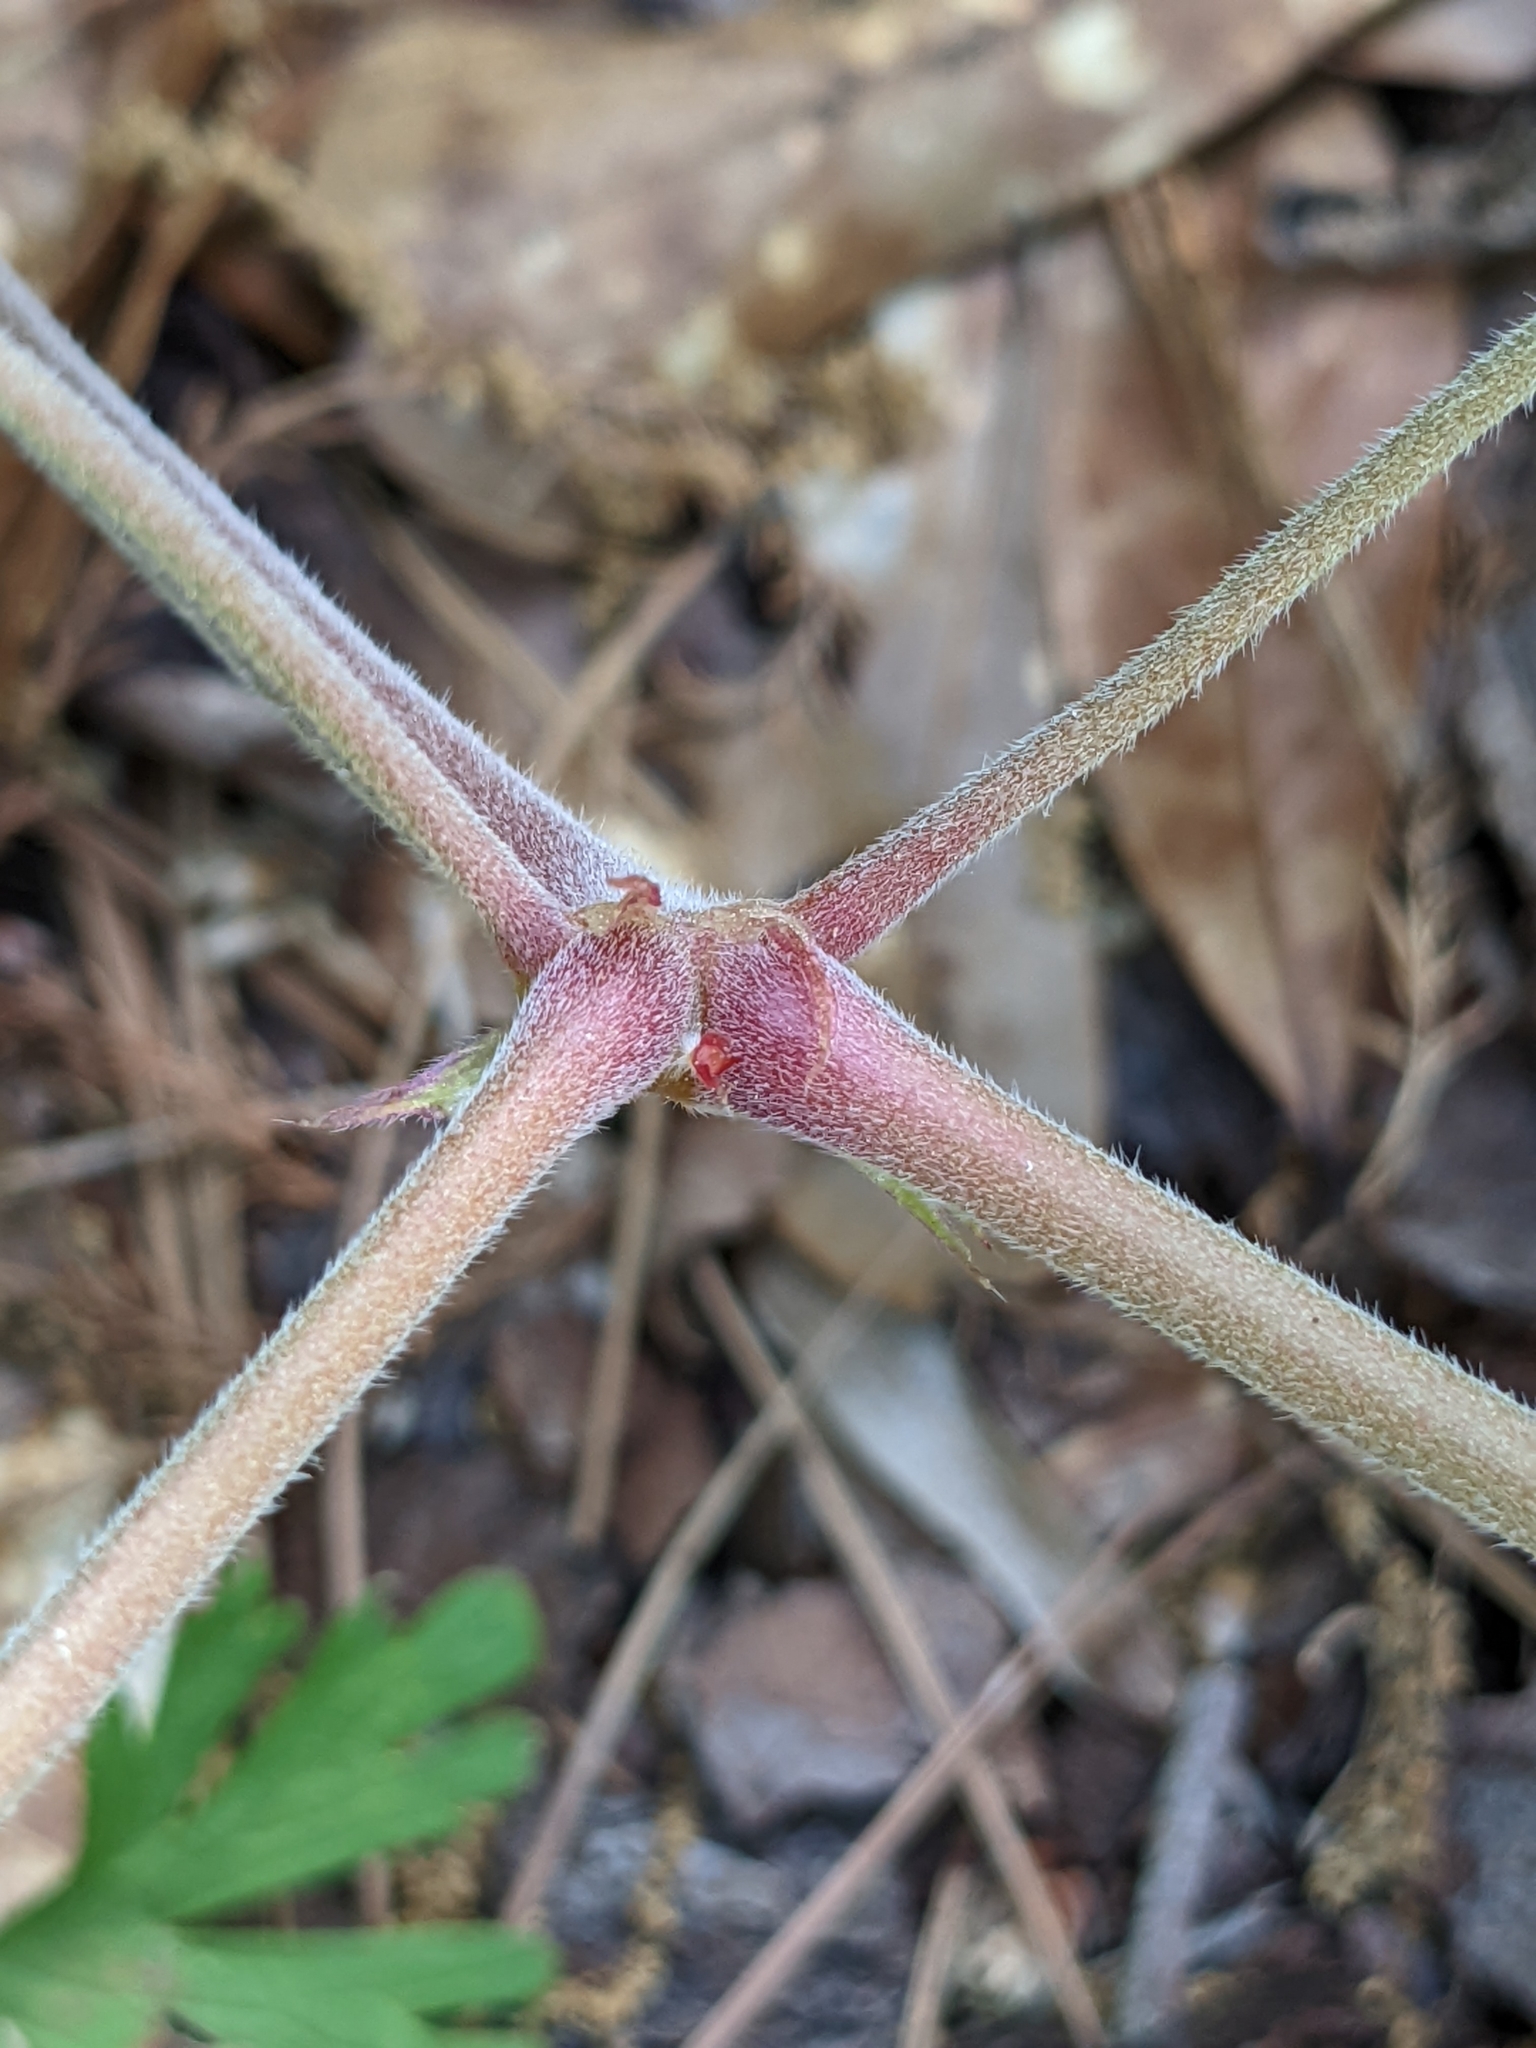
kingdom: Plantae
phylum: Tracheophyta
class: Magnoliopsida
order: Geraniales
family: Geraniaceae
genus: Geranium
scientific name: Geranium carolinianum
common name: Carolina crane's-bill
